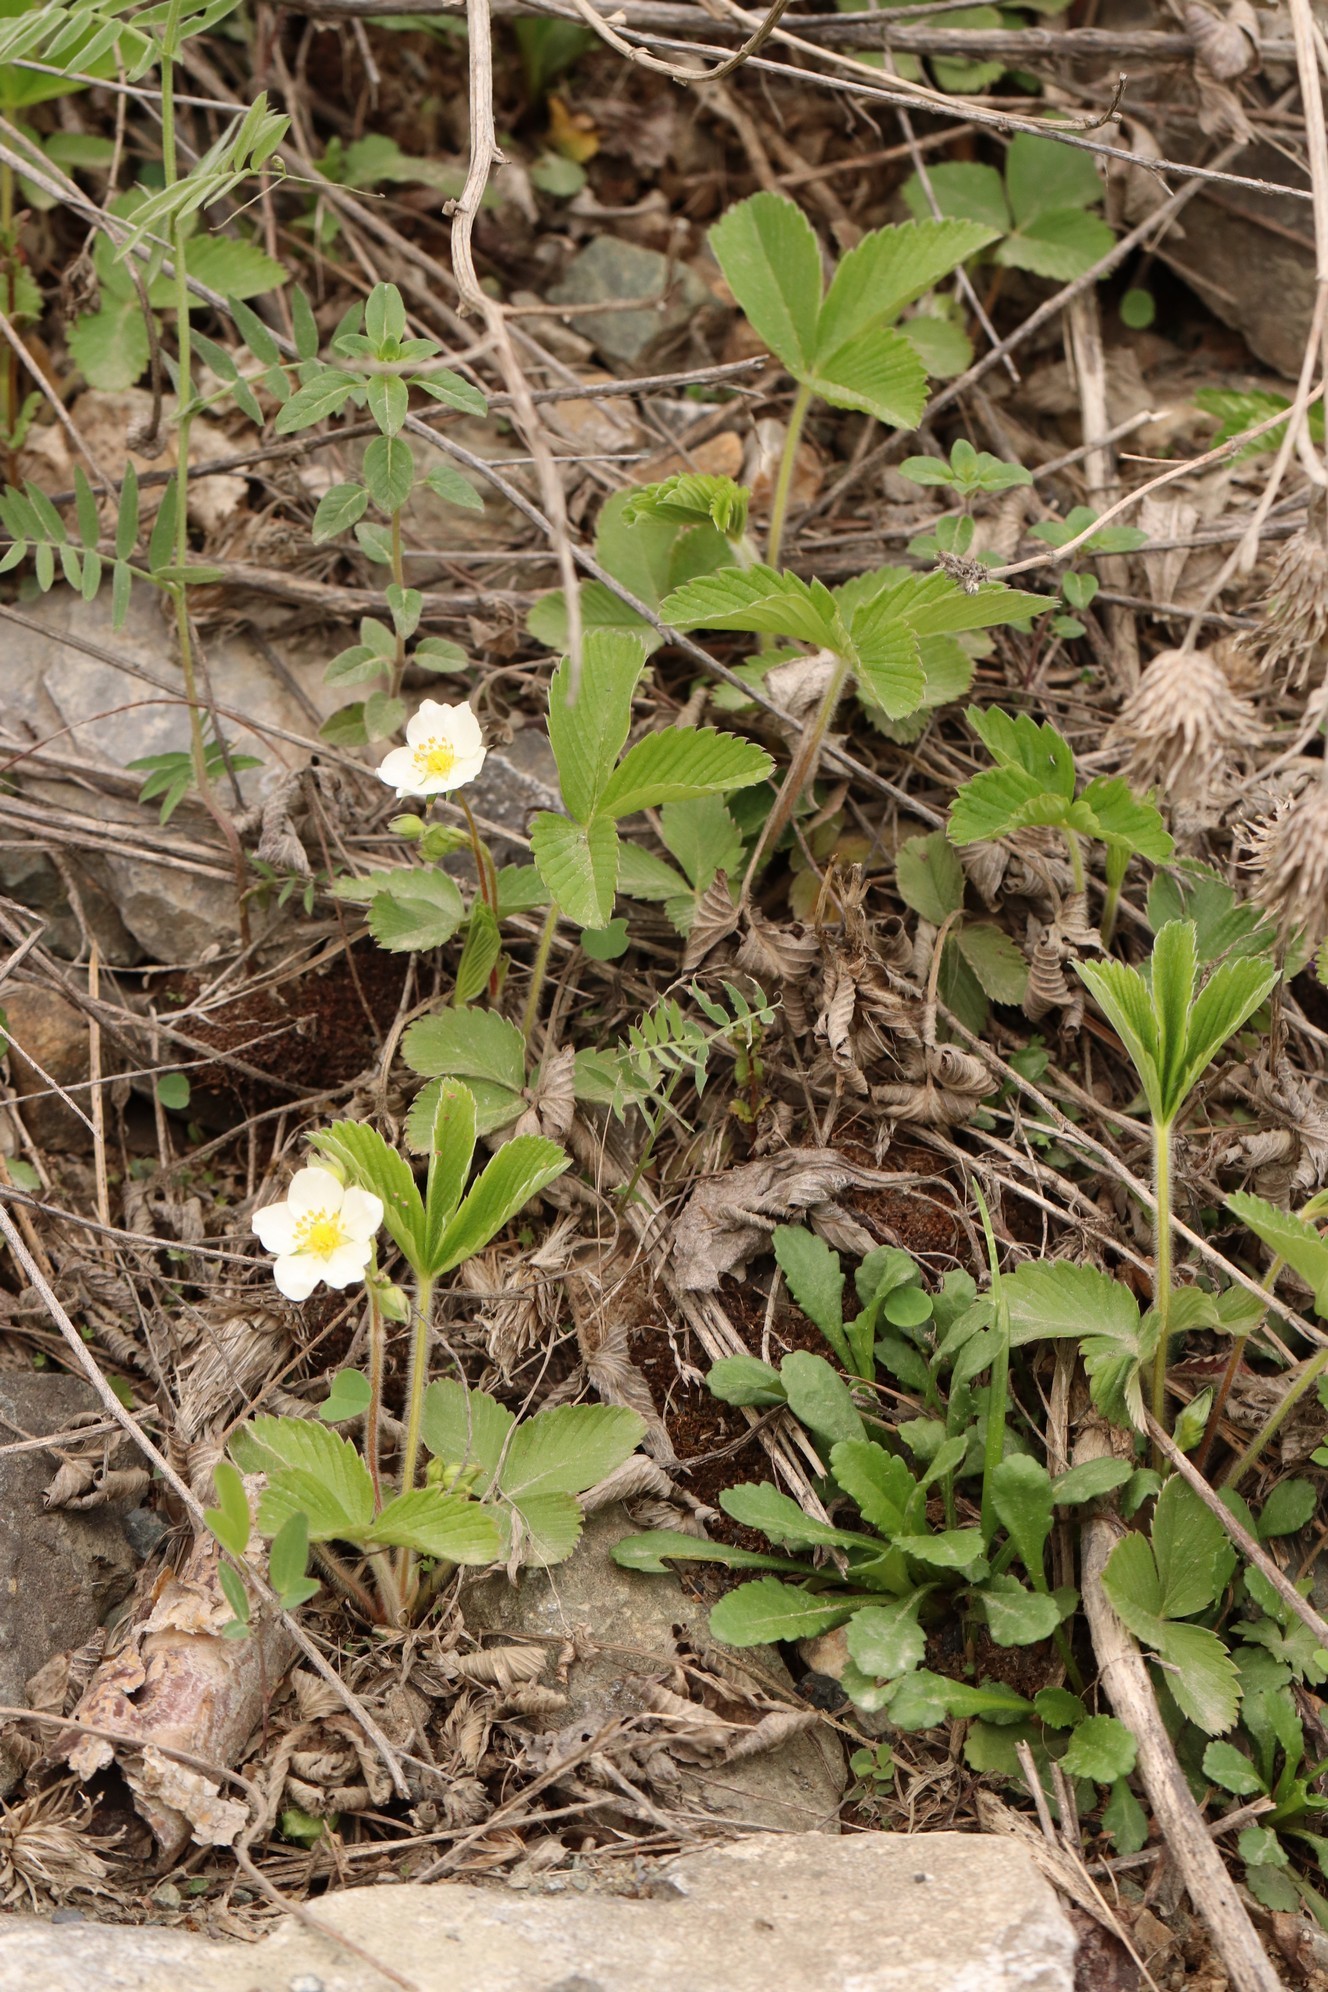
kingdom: Plantae
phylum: Tracheophyta
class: Magnoliopsida
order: Rosales
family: Rosaceae
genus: Fragaria
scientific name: Fragaria viridis
